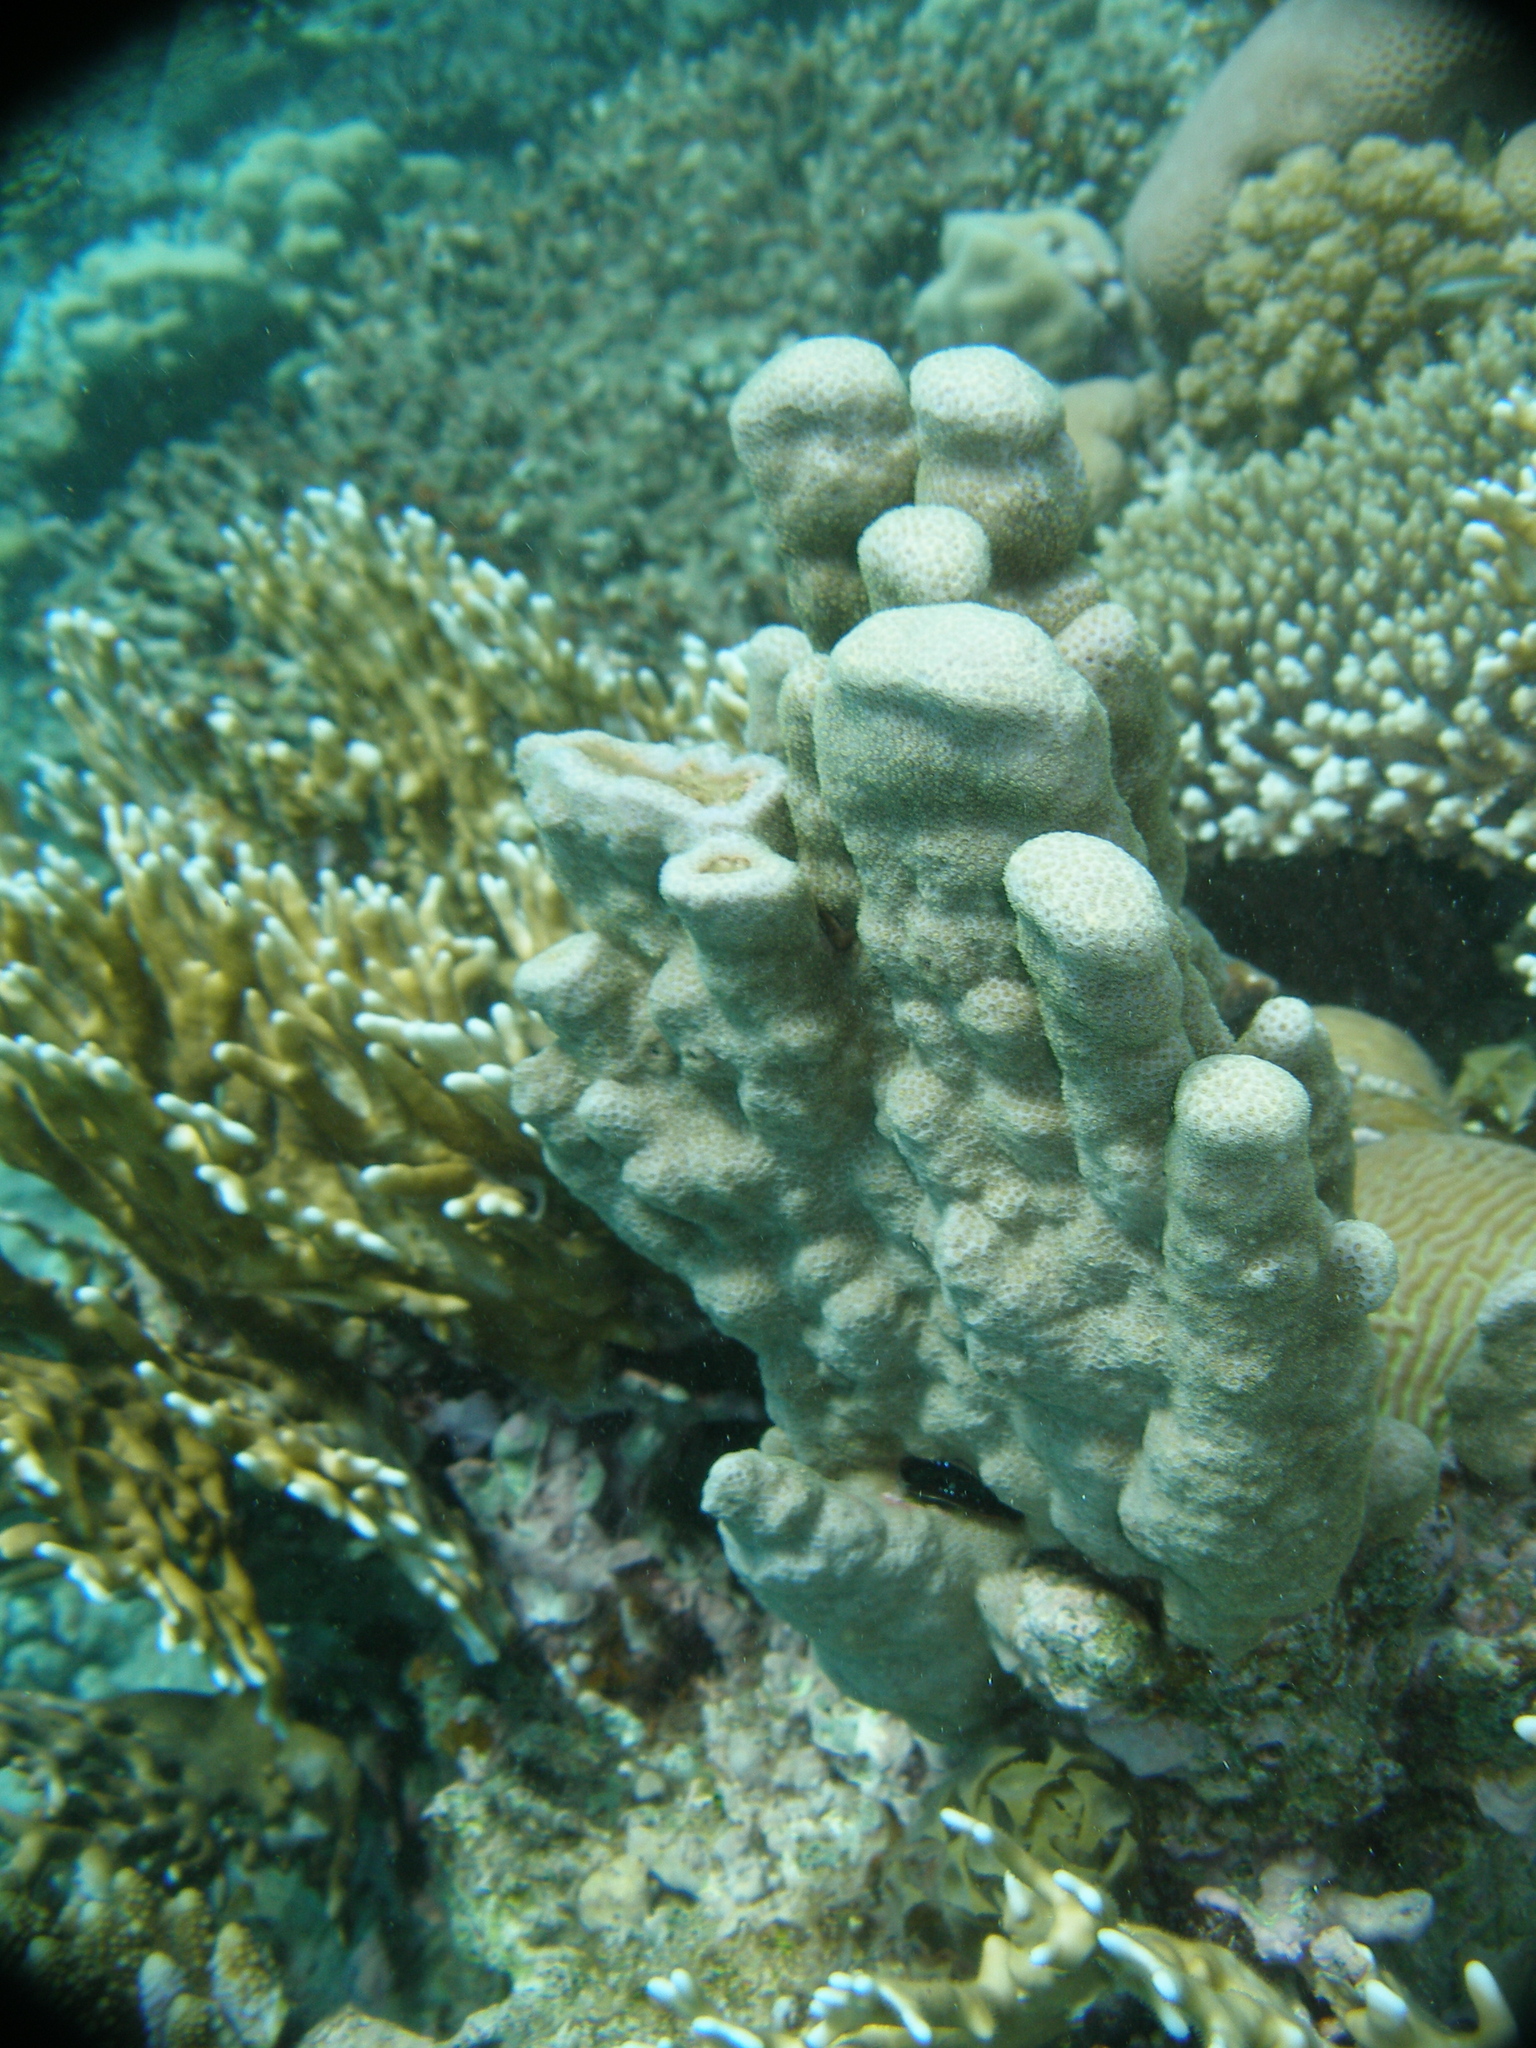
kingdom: Animalia
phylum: Cnidaria
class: Anthozoa
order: Scleractinia
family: Poritidae
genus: Porites
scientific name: Porites columnaris
